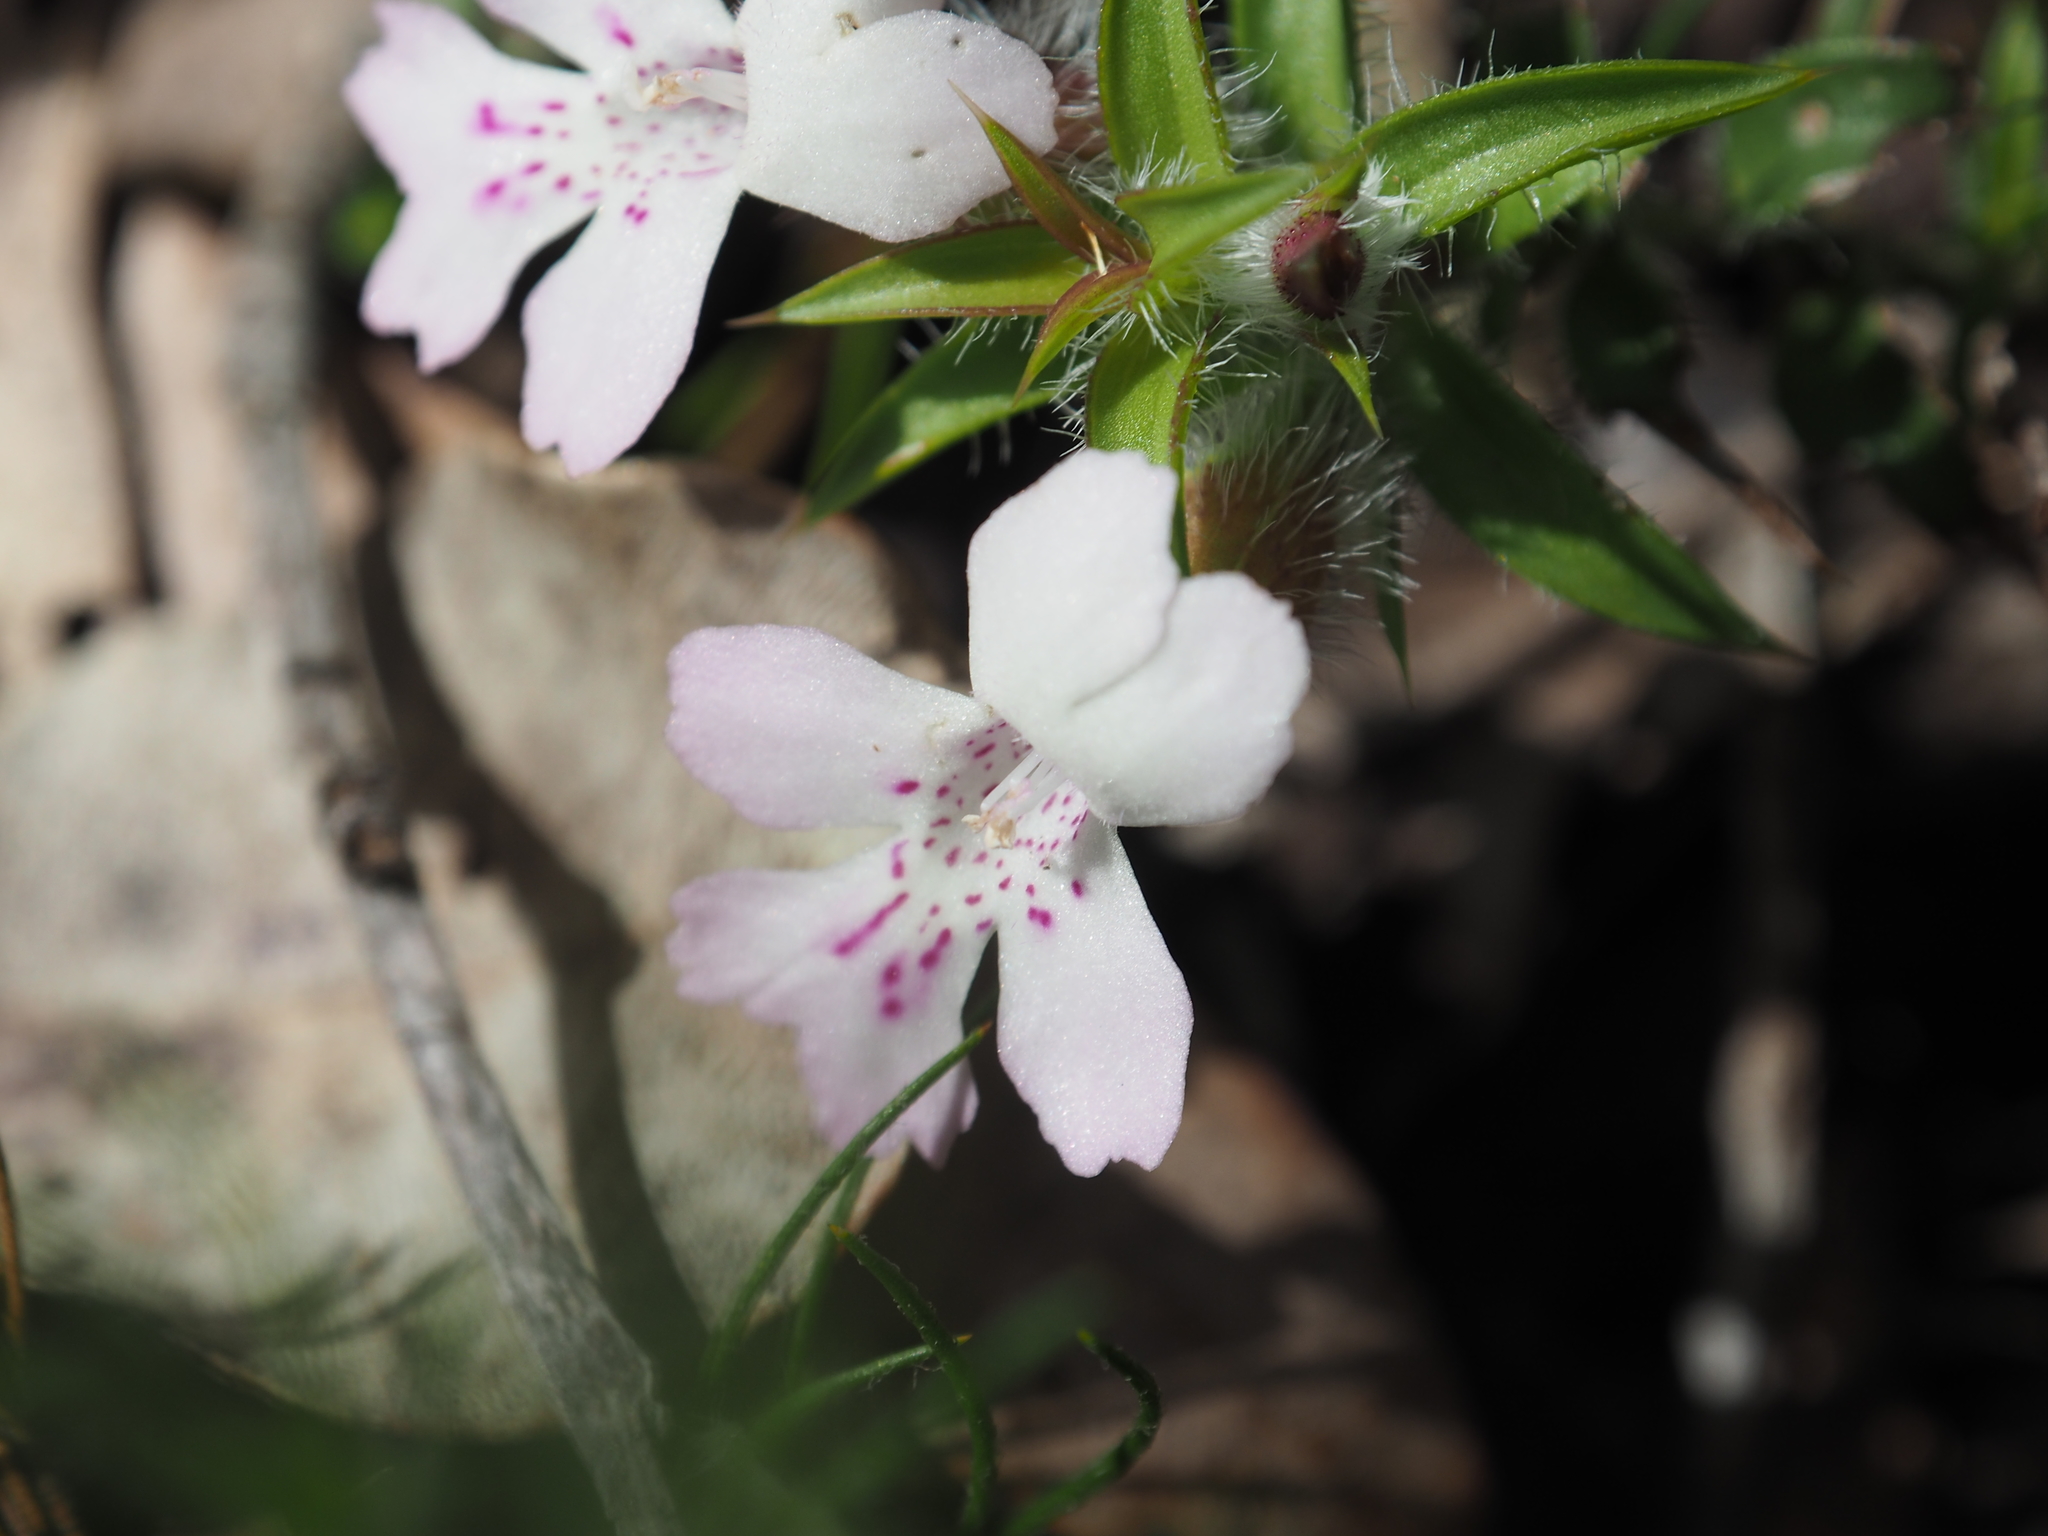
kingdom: Plantae
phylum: Tracheophyta
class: Magnoliopsida
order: Lamiales
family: Lamiaceae
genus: Hemiandra
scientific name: Hemiandra pungens
